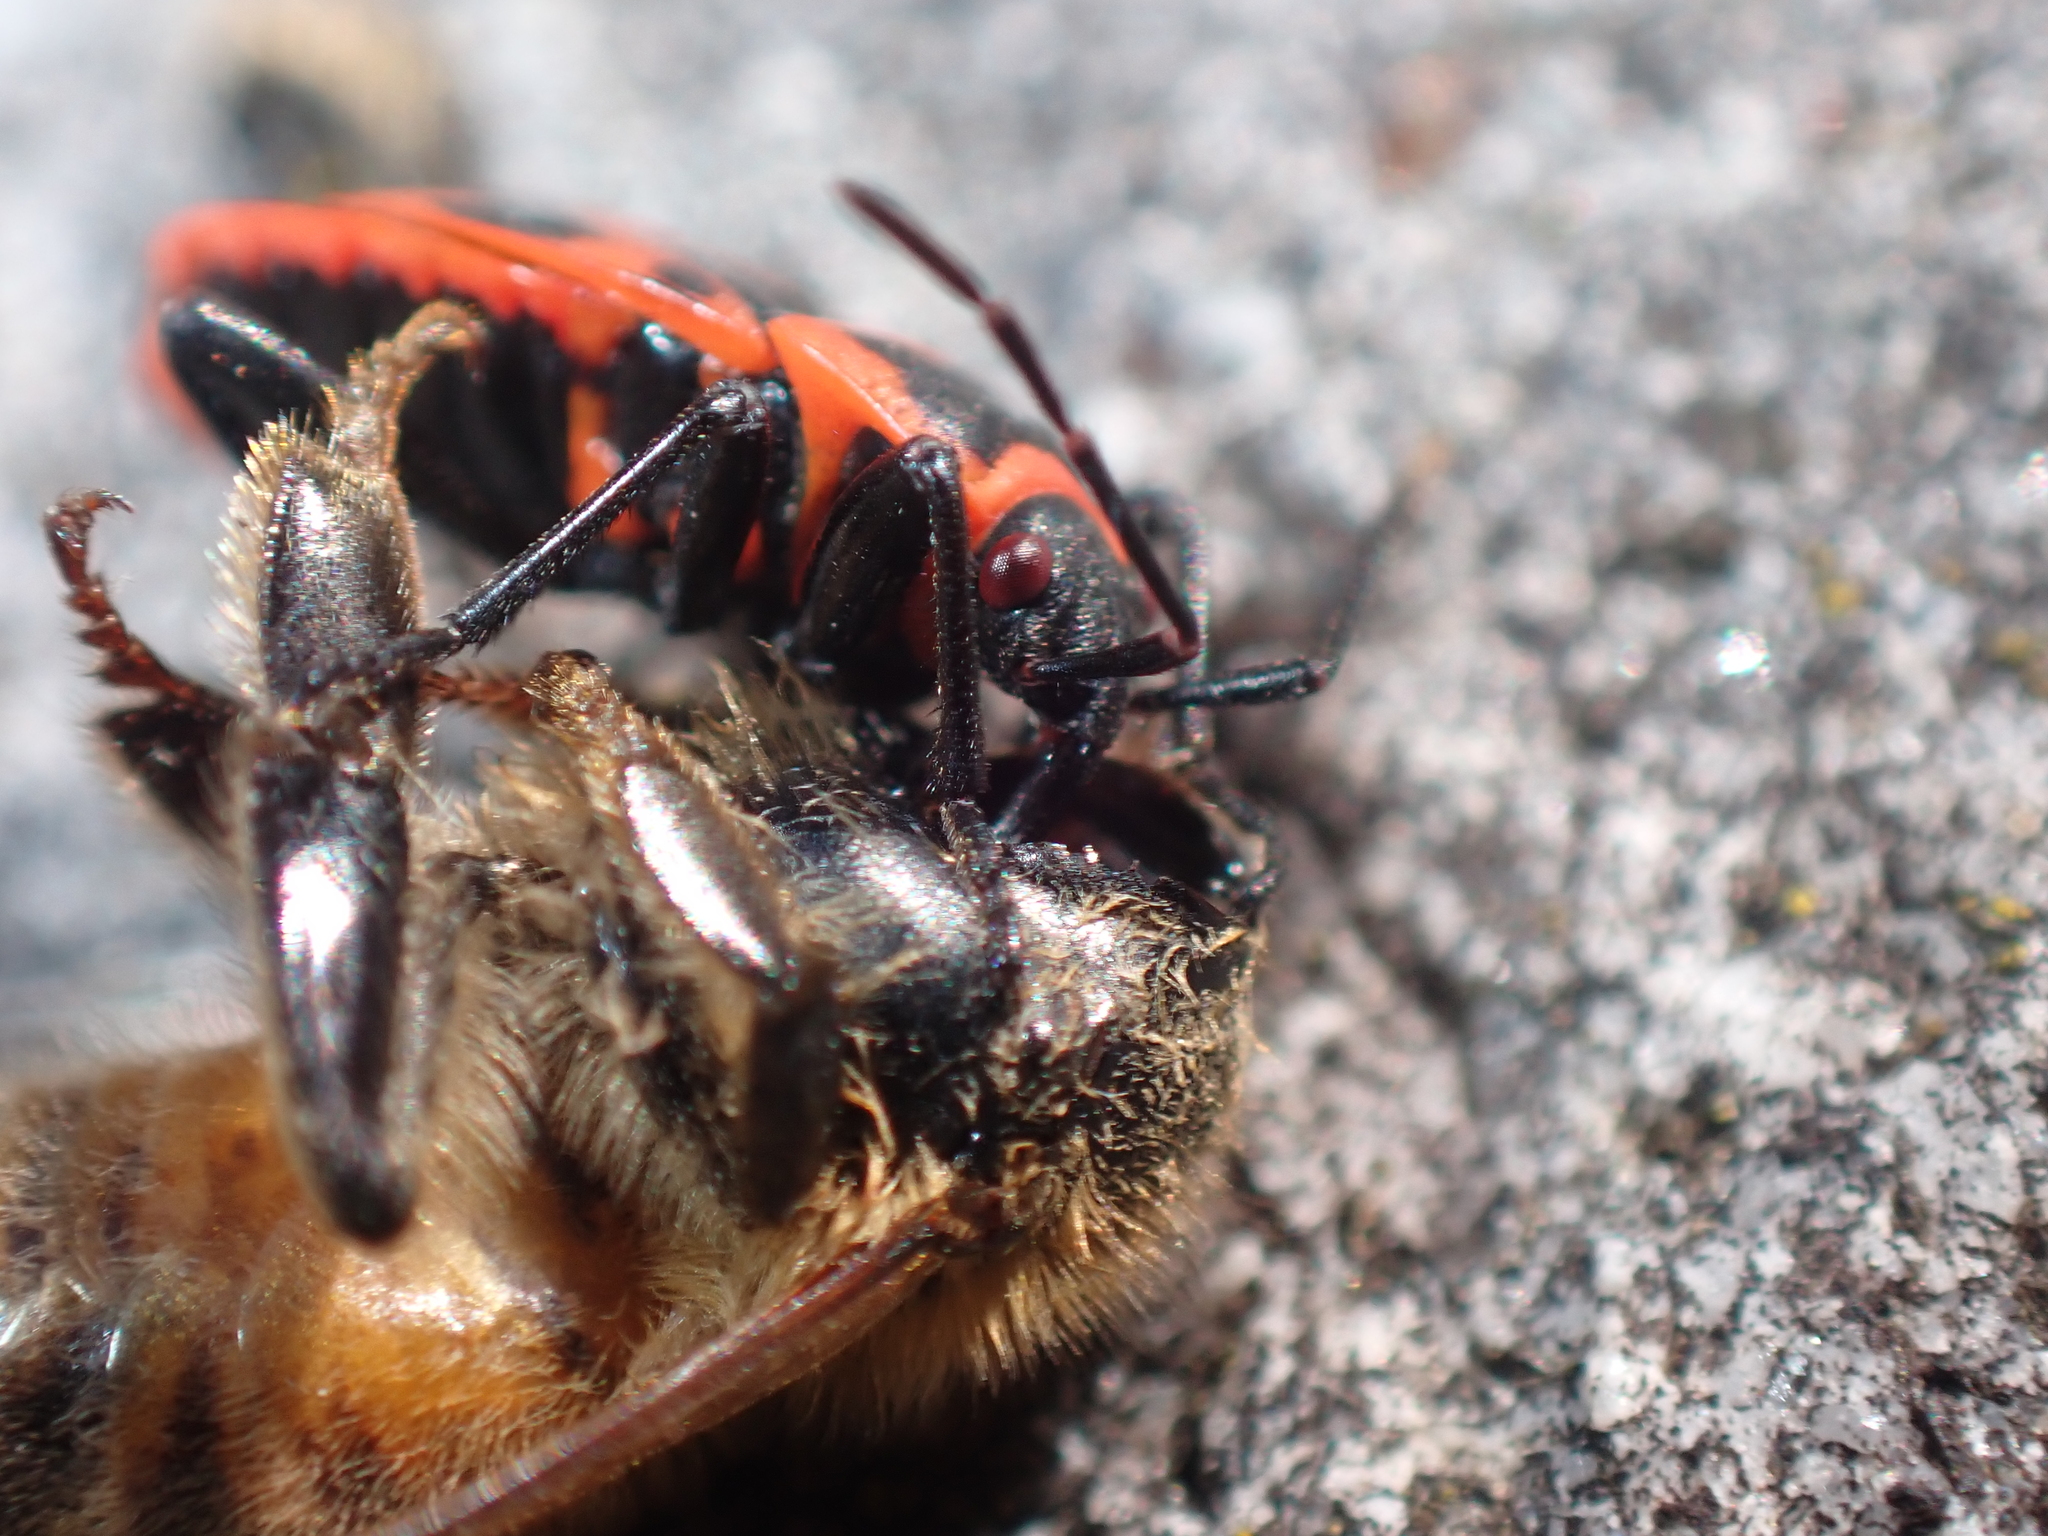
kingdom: Animalia
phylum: Arthropoda
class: Insecta
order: Hemiptera
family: Pyrrhocoridae
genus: Pyrrhocoris
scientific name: Pyrrhocoris apterus
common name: Firebug
